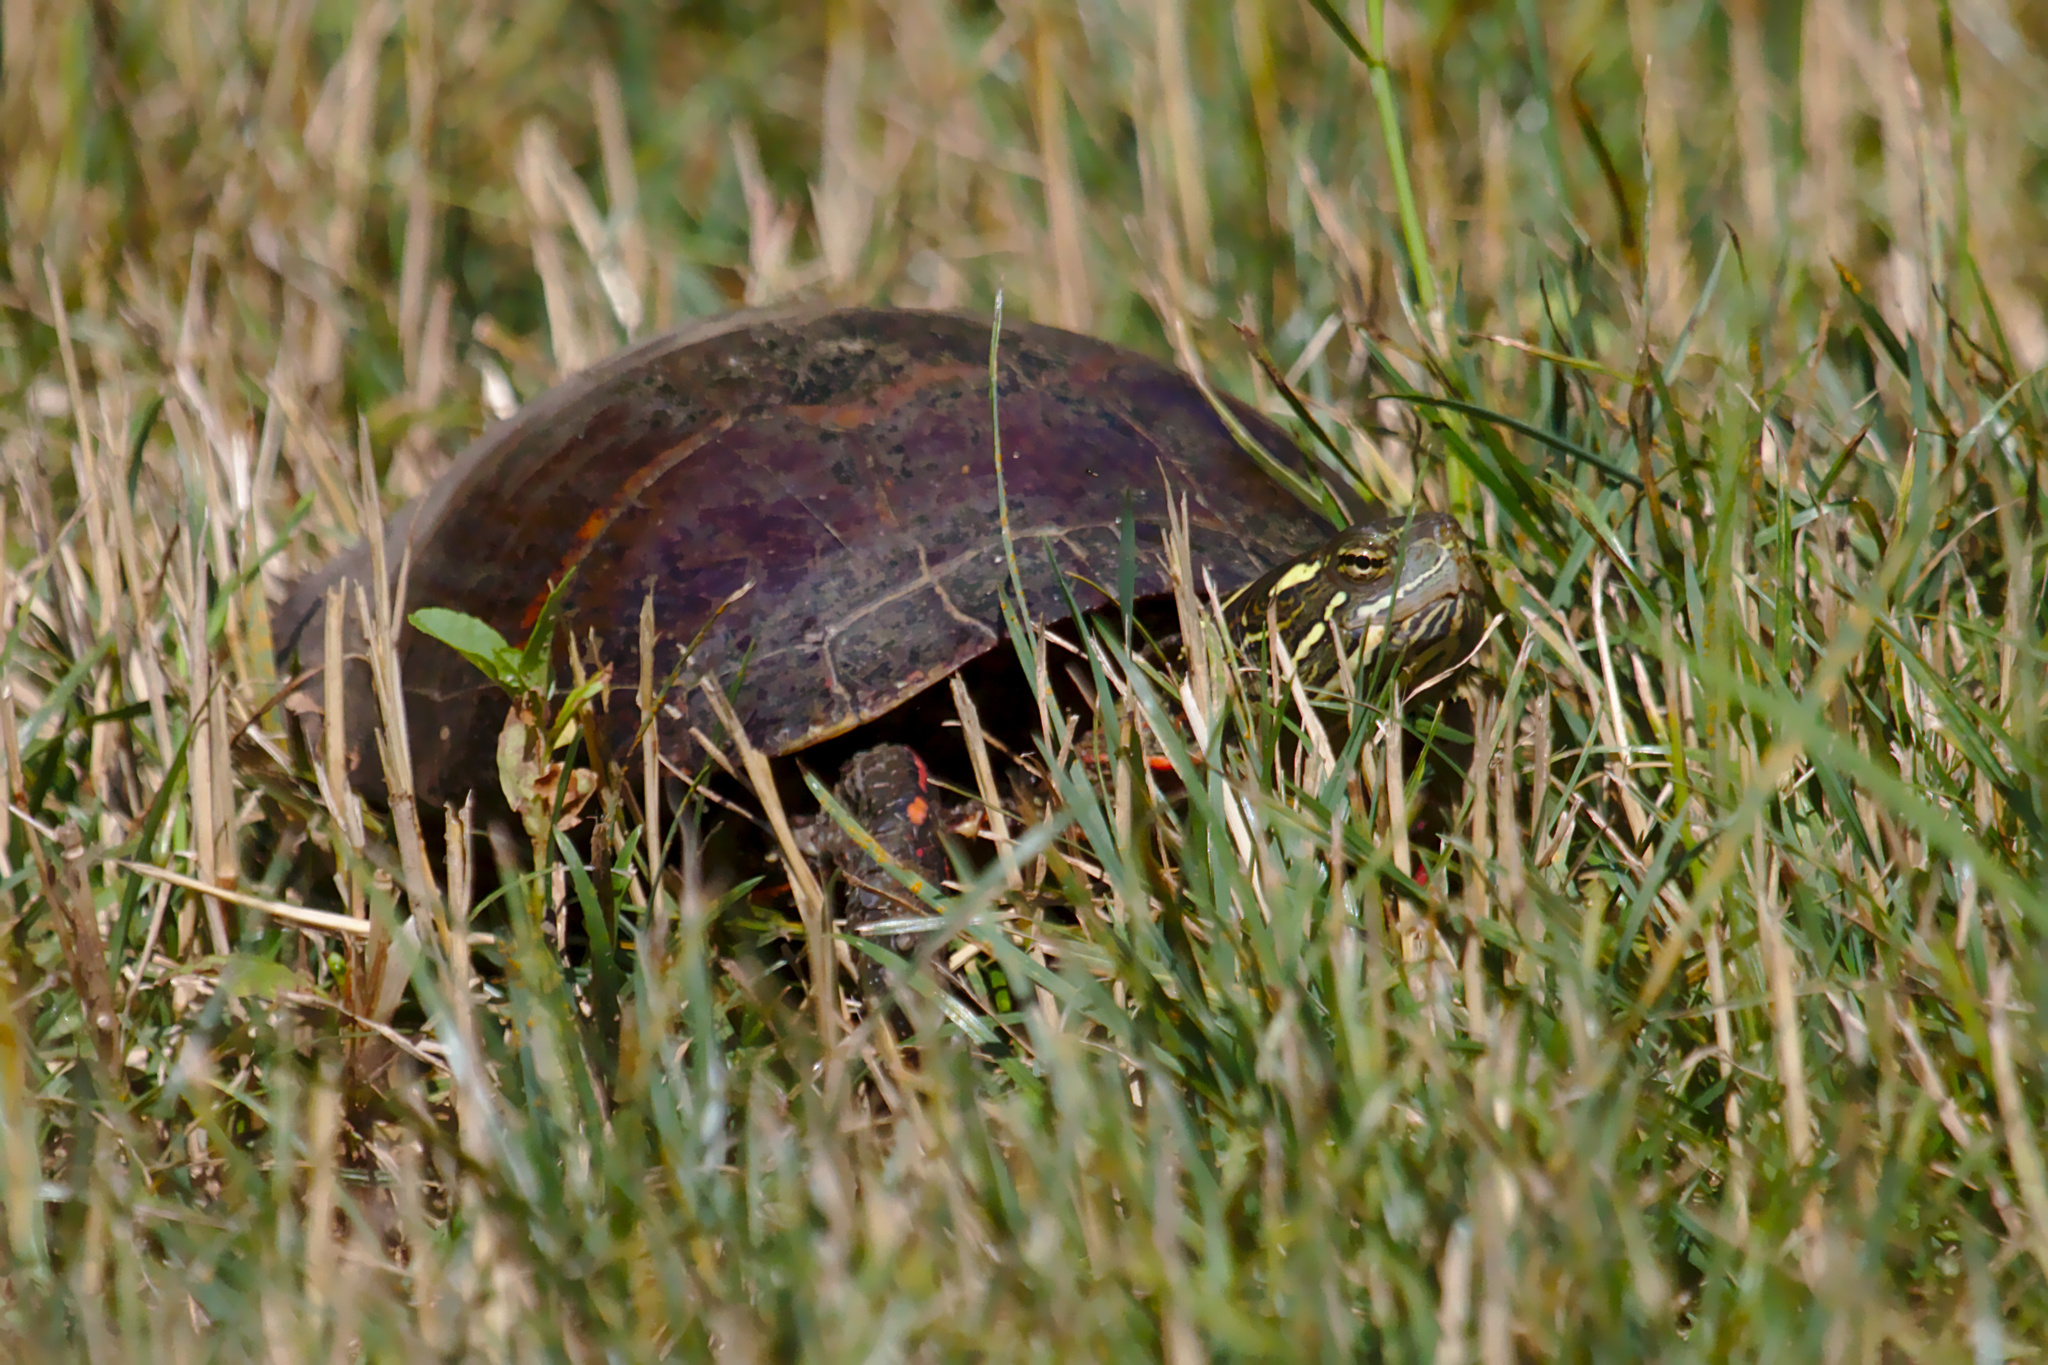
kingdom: Animalia
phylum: Chordata
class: Testudines
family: Emydidae
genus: Chrysemys
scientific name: Chrysemys picta
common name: Painted turtle
